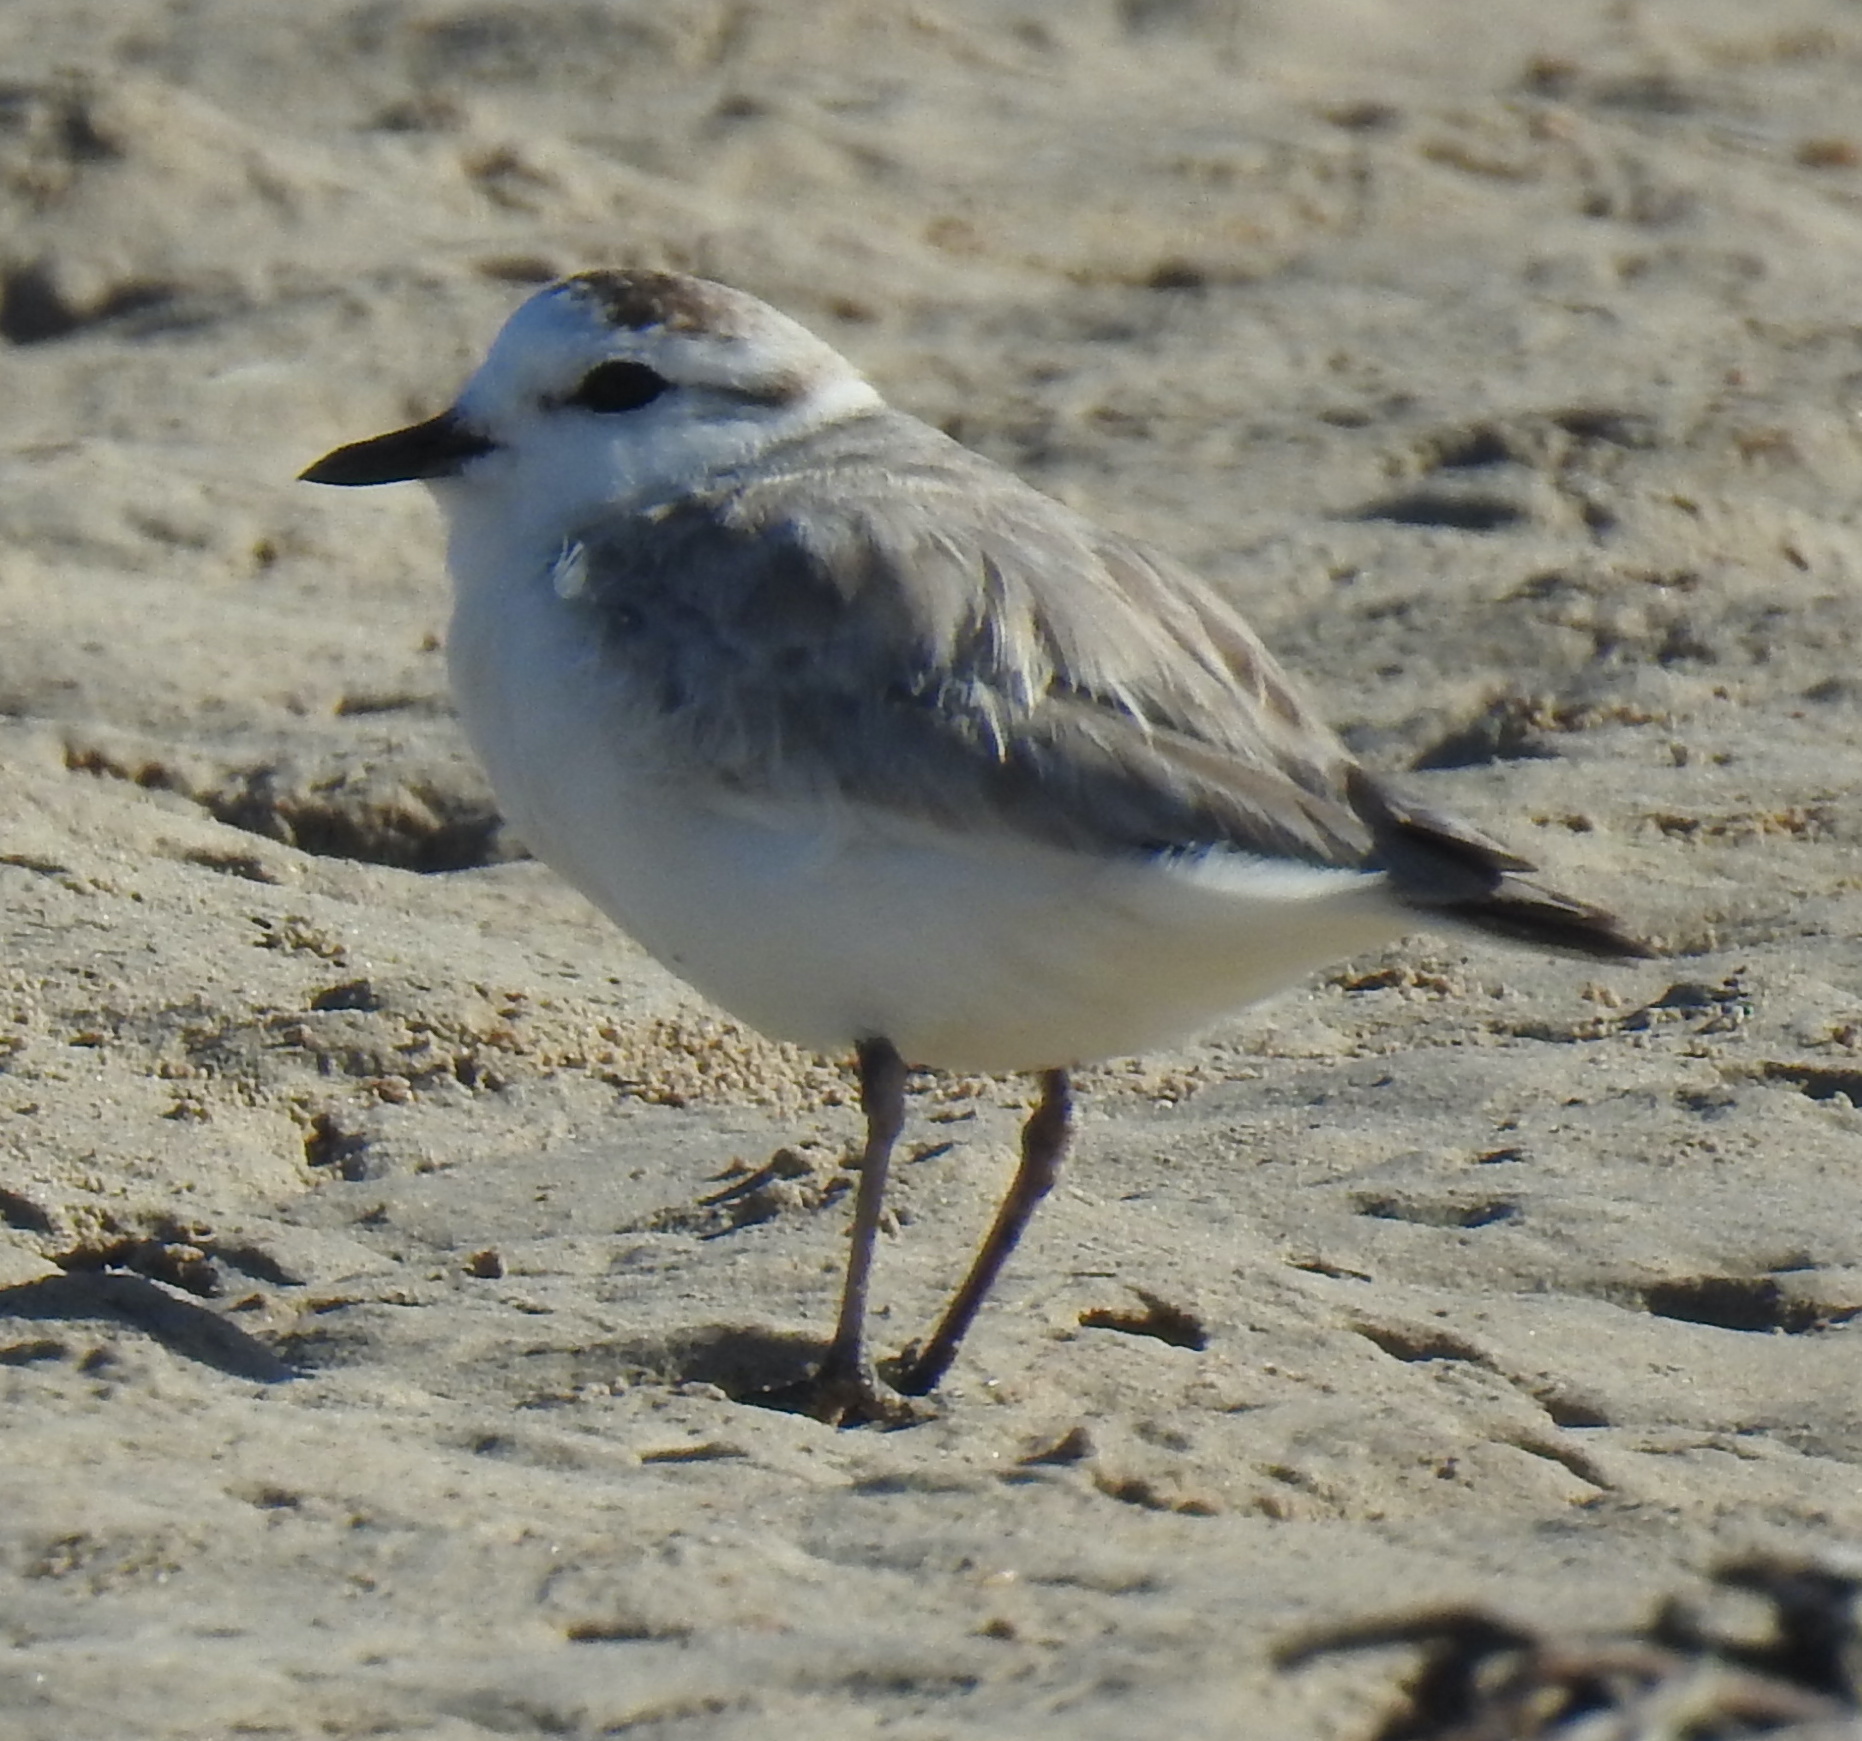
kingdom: Animalia
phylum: Chordata
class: Aves
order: Charadriiformes
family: Charadriidae
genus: Anarhynchus
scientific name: Anarhynchus
